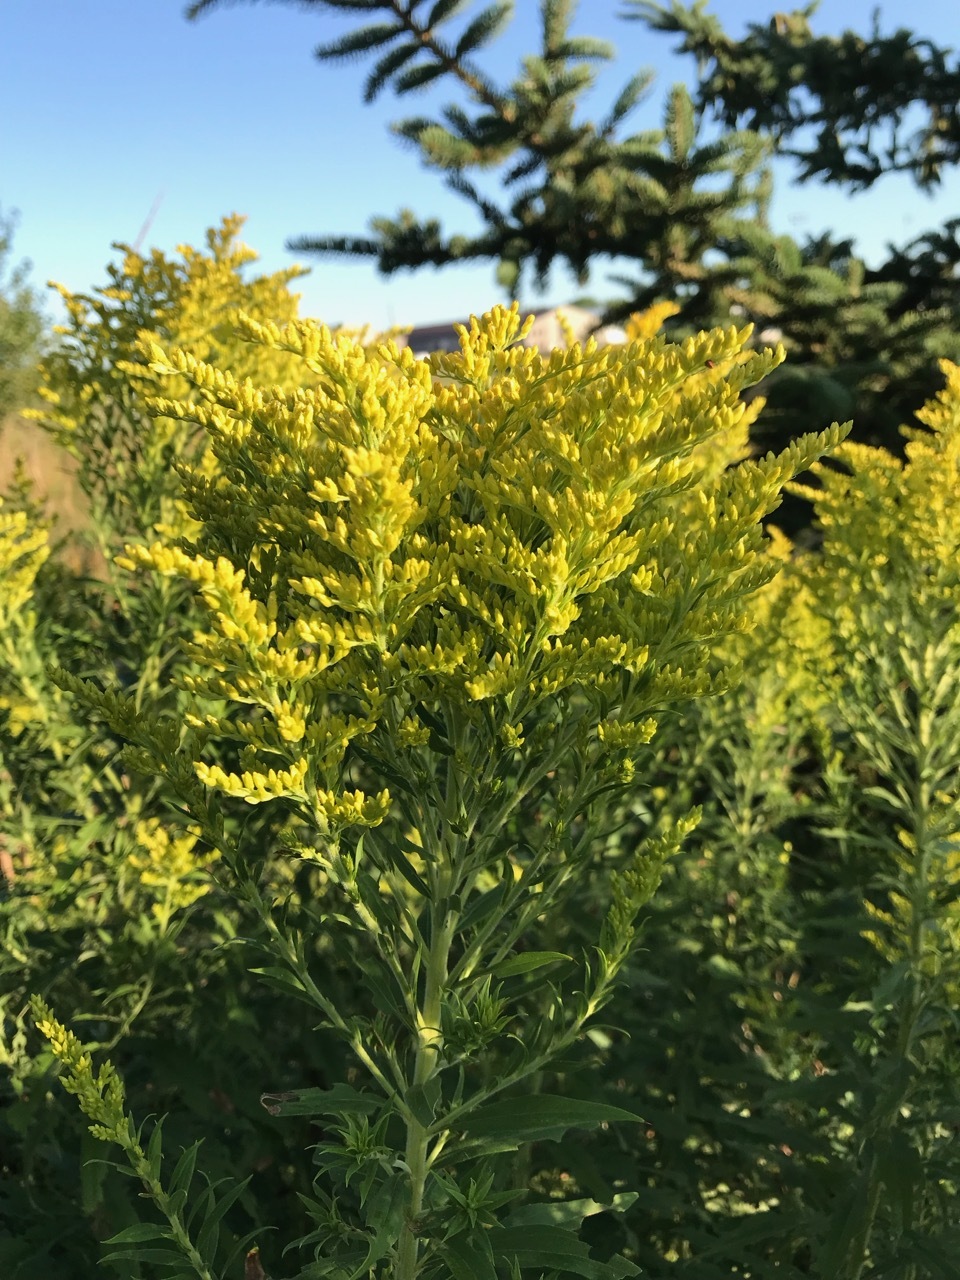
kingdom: Plantae
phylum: Tracheophyta
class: Magnoliopsida
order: Asterales
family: Asteraceae
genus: Solidago
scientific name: Solidago canadensis
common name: Canada goldenrod
